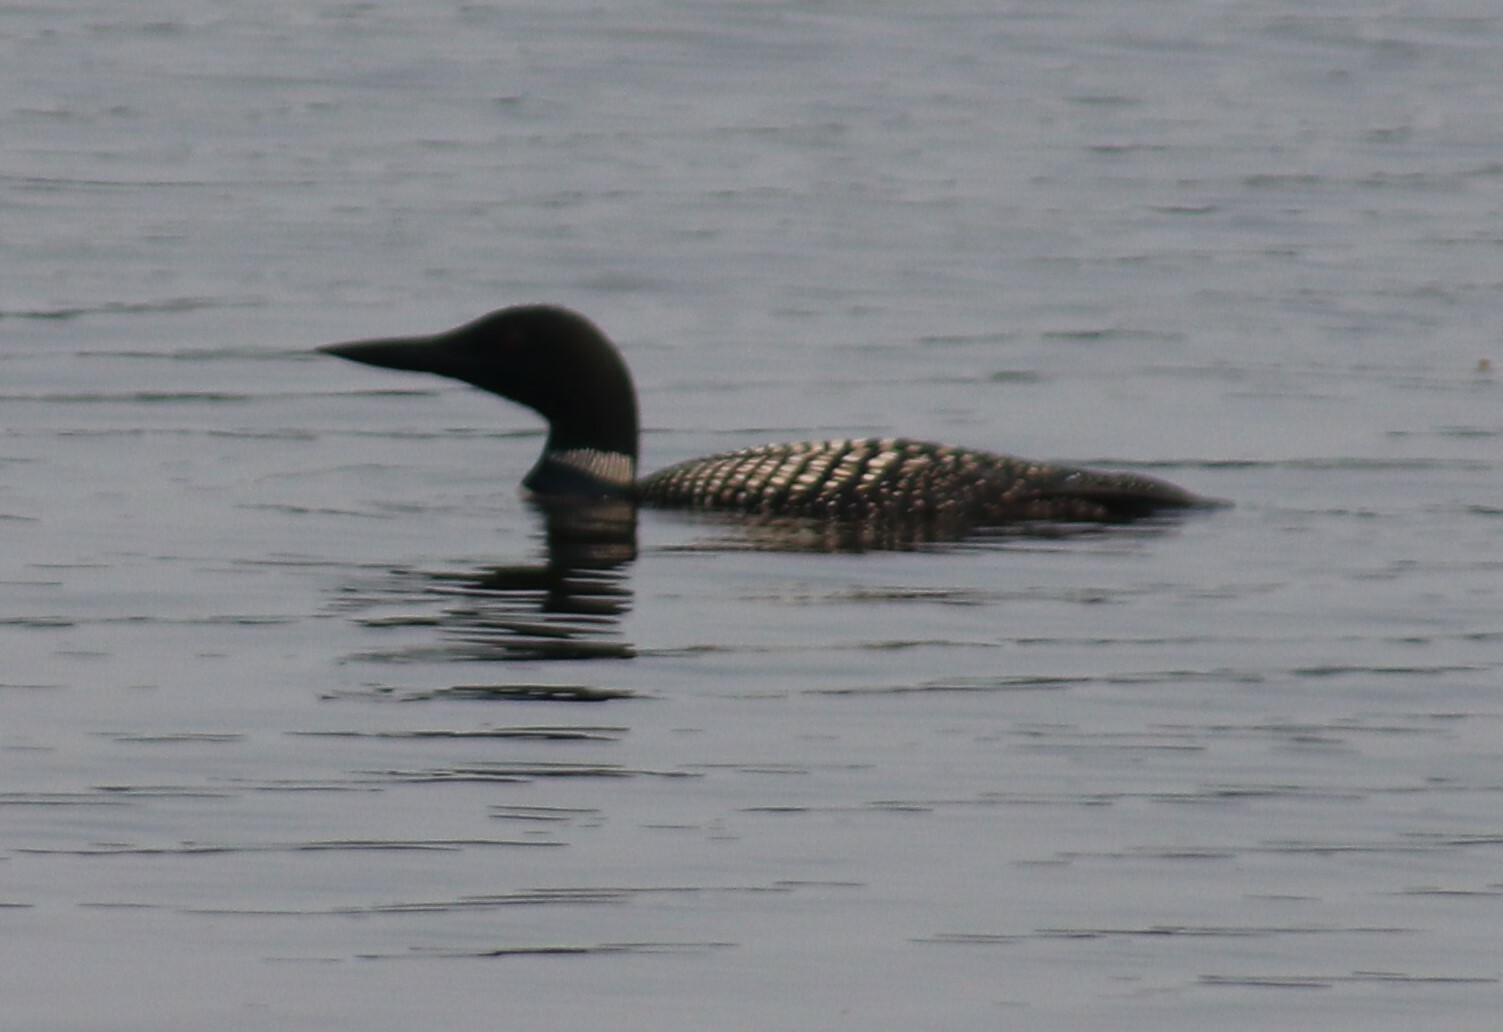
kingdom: Animalia
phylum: Chordata
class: Aves
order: Gaviiformes
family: Gaviidae
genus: Gavia
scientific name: Gavia immer
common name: Common loon
